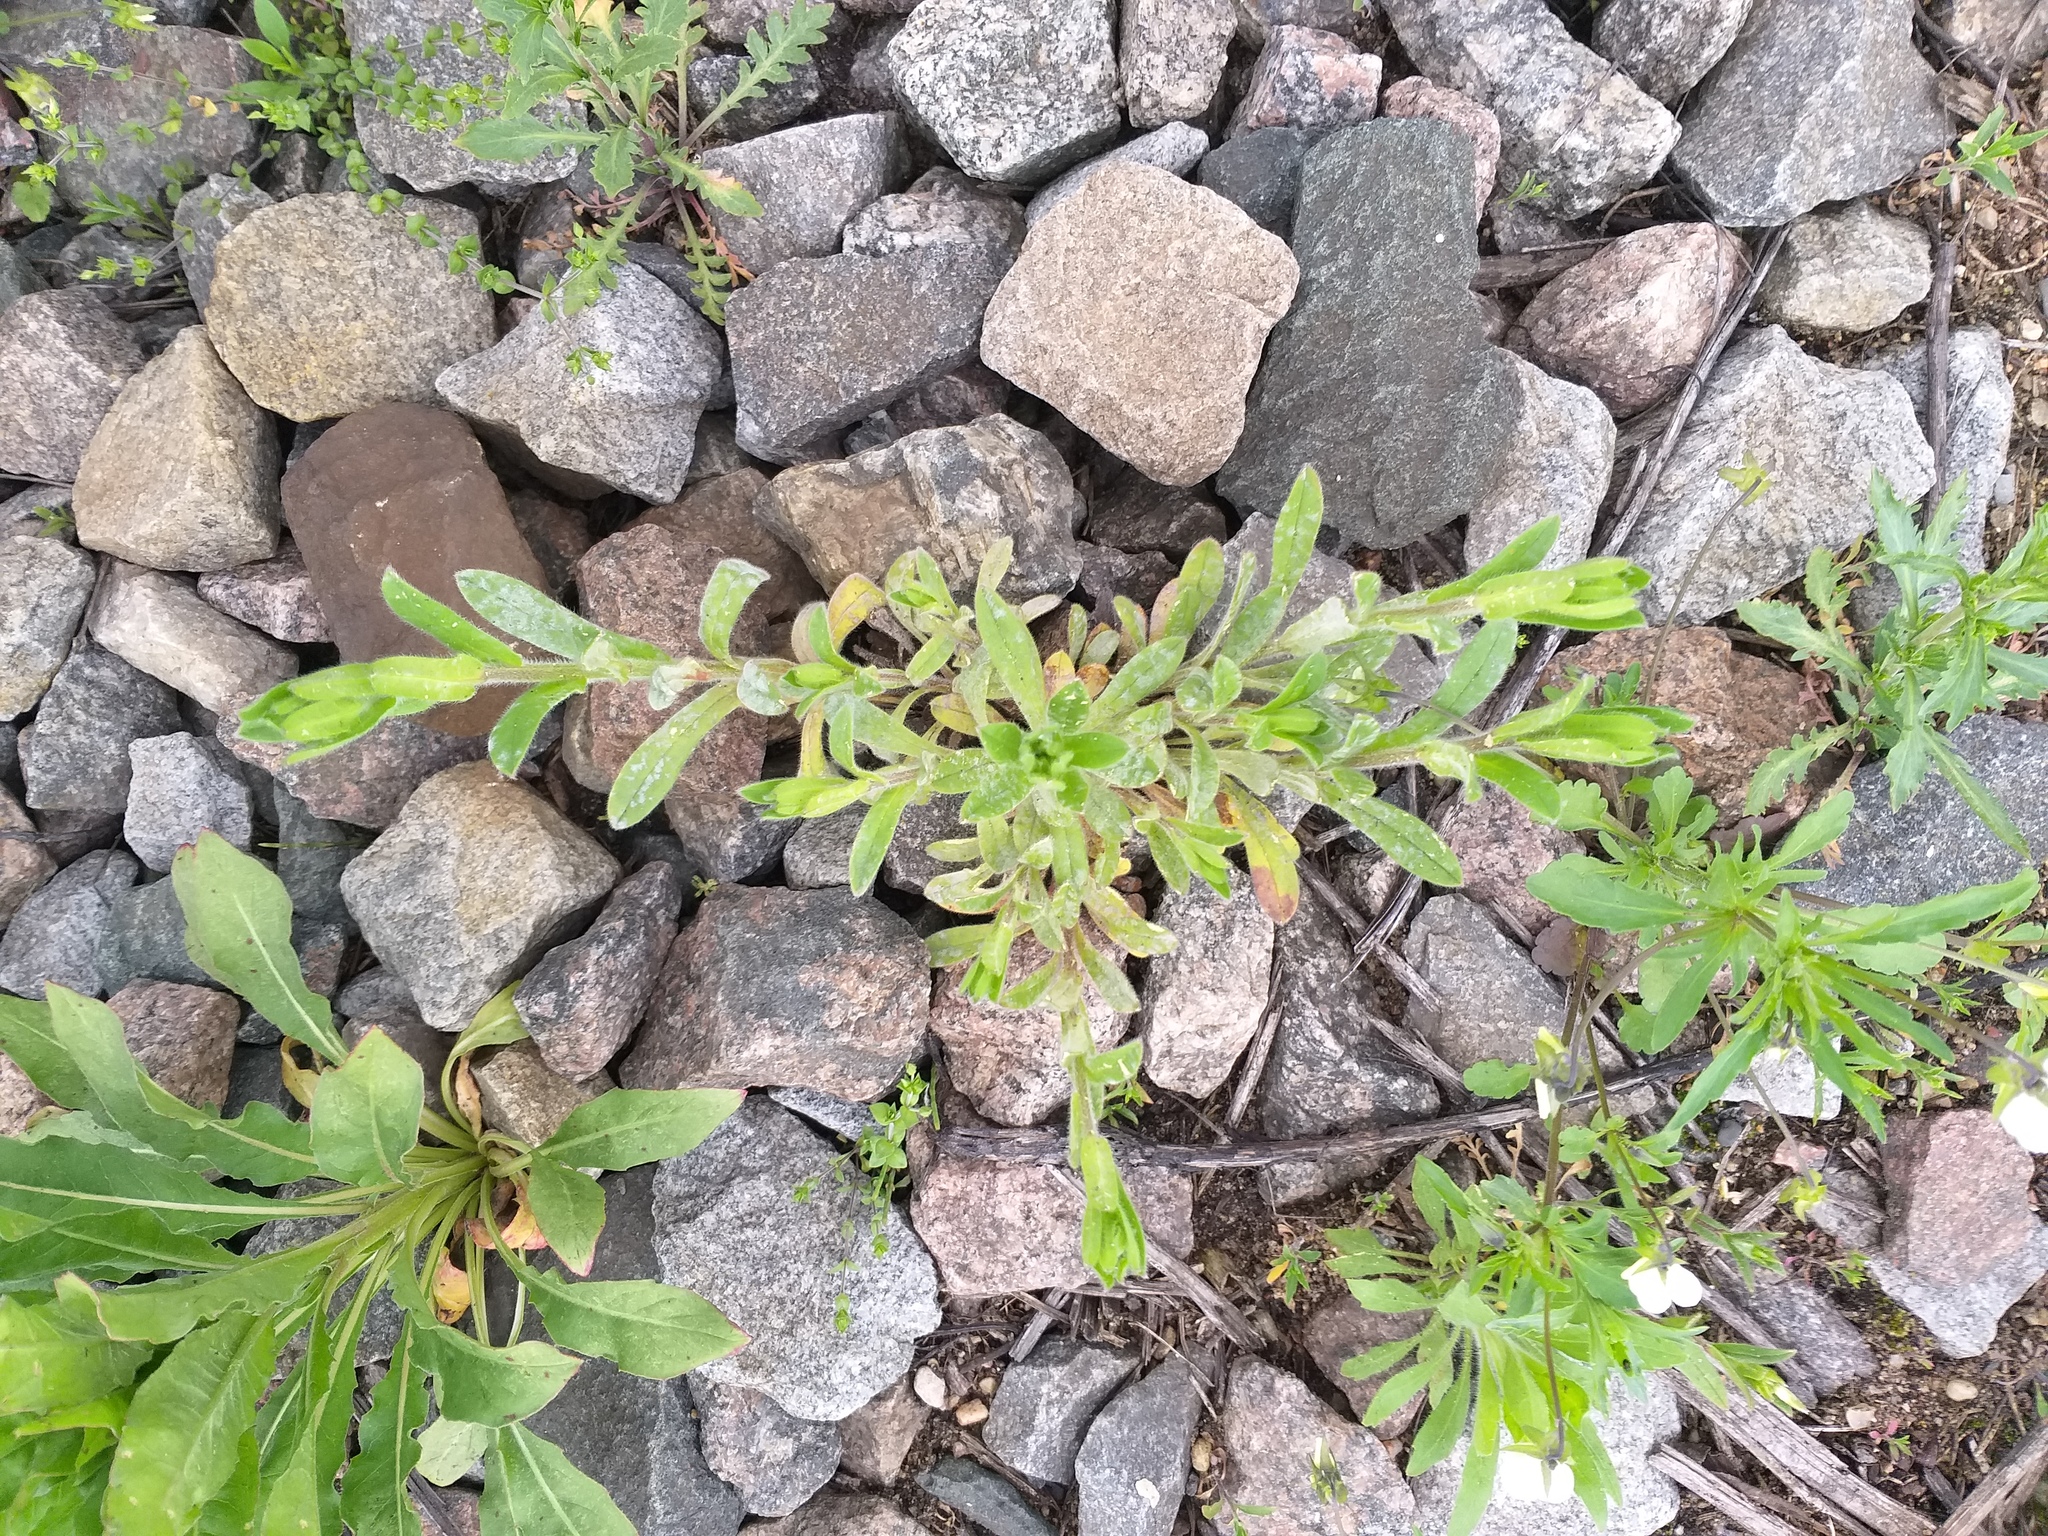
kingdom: Plantae
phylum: Tracheophyta
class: Magnoliopsida
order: Boraginales
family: Boraginaceae
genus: Myosotis
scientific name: Myosotis arvensis
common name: Field forget-me-not
